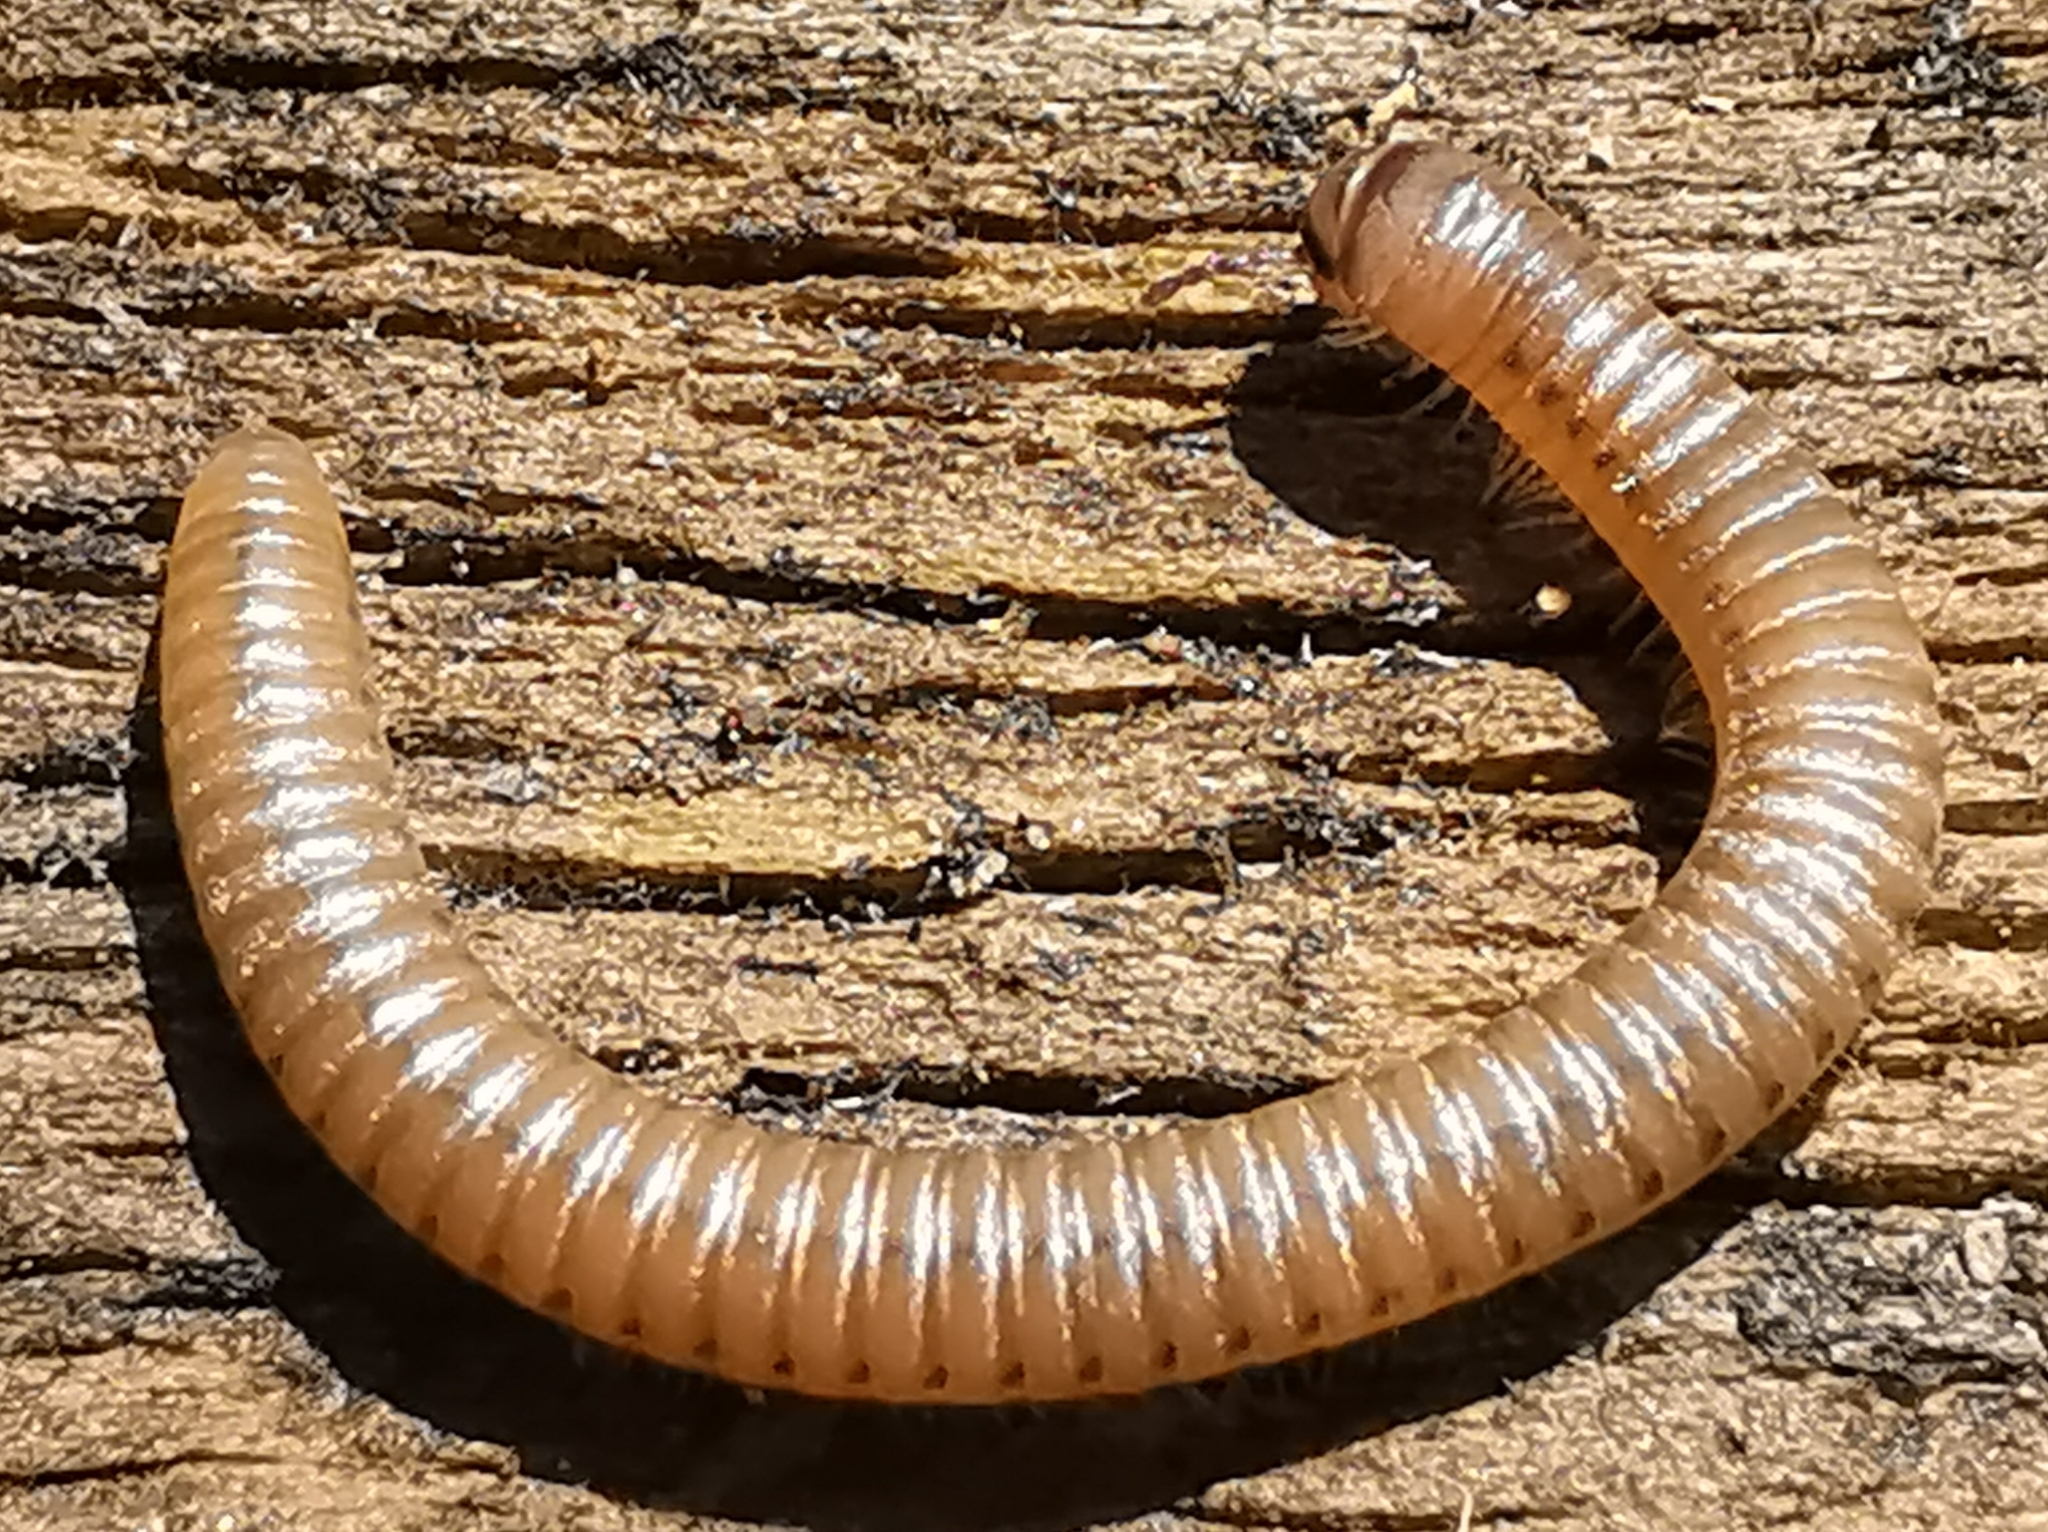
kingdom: Animalia
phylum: Arthropoda
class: Diplopoda
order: Julida
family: Julidae
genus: Cylindroiulus
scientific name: Cylindroiulus punctatus
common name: Blunt-tailed millipede
